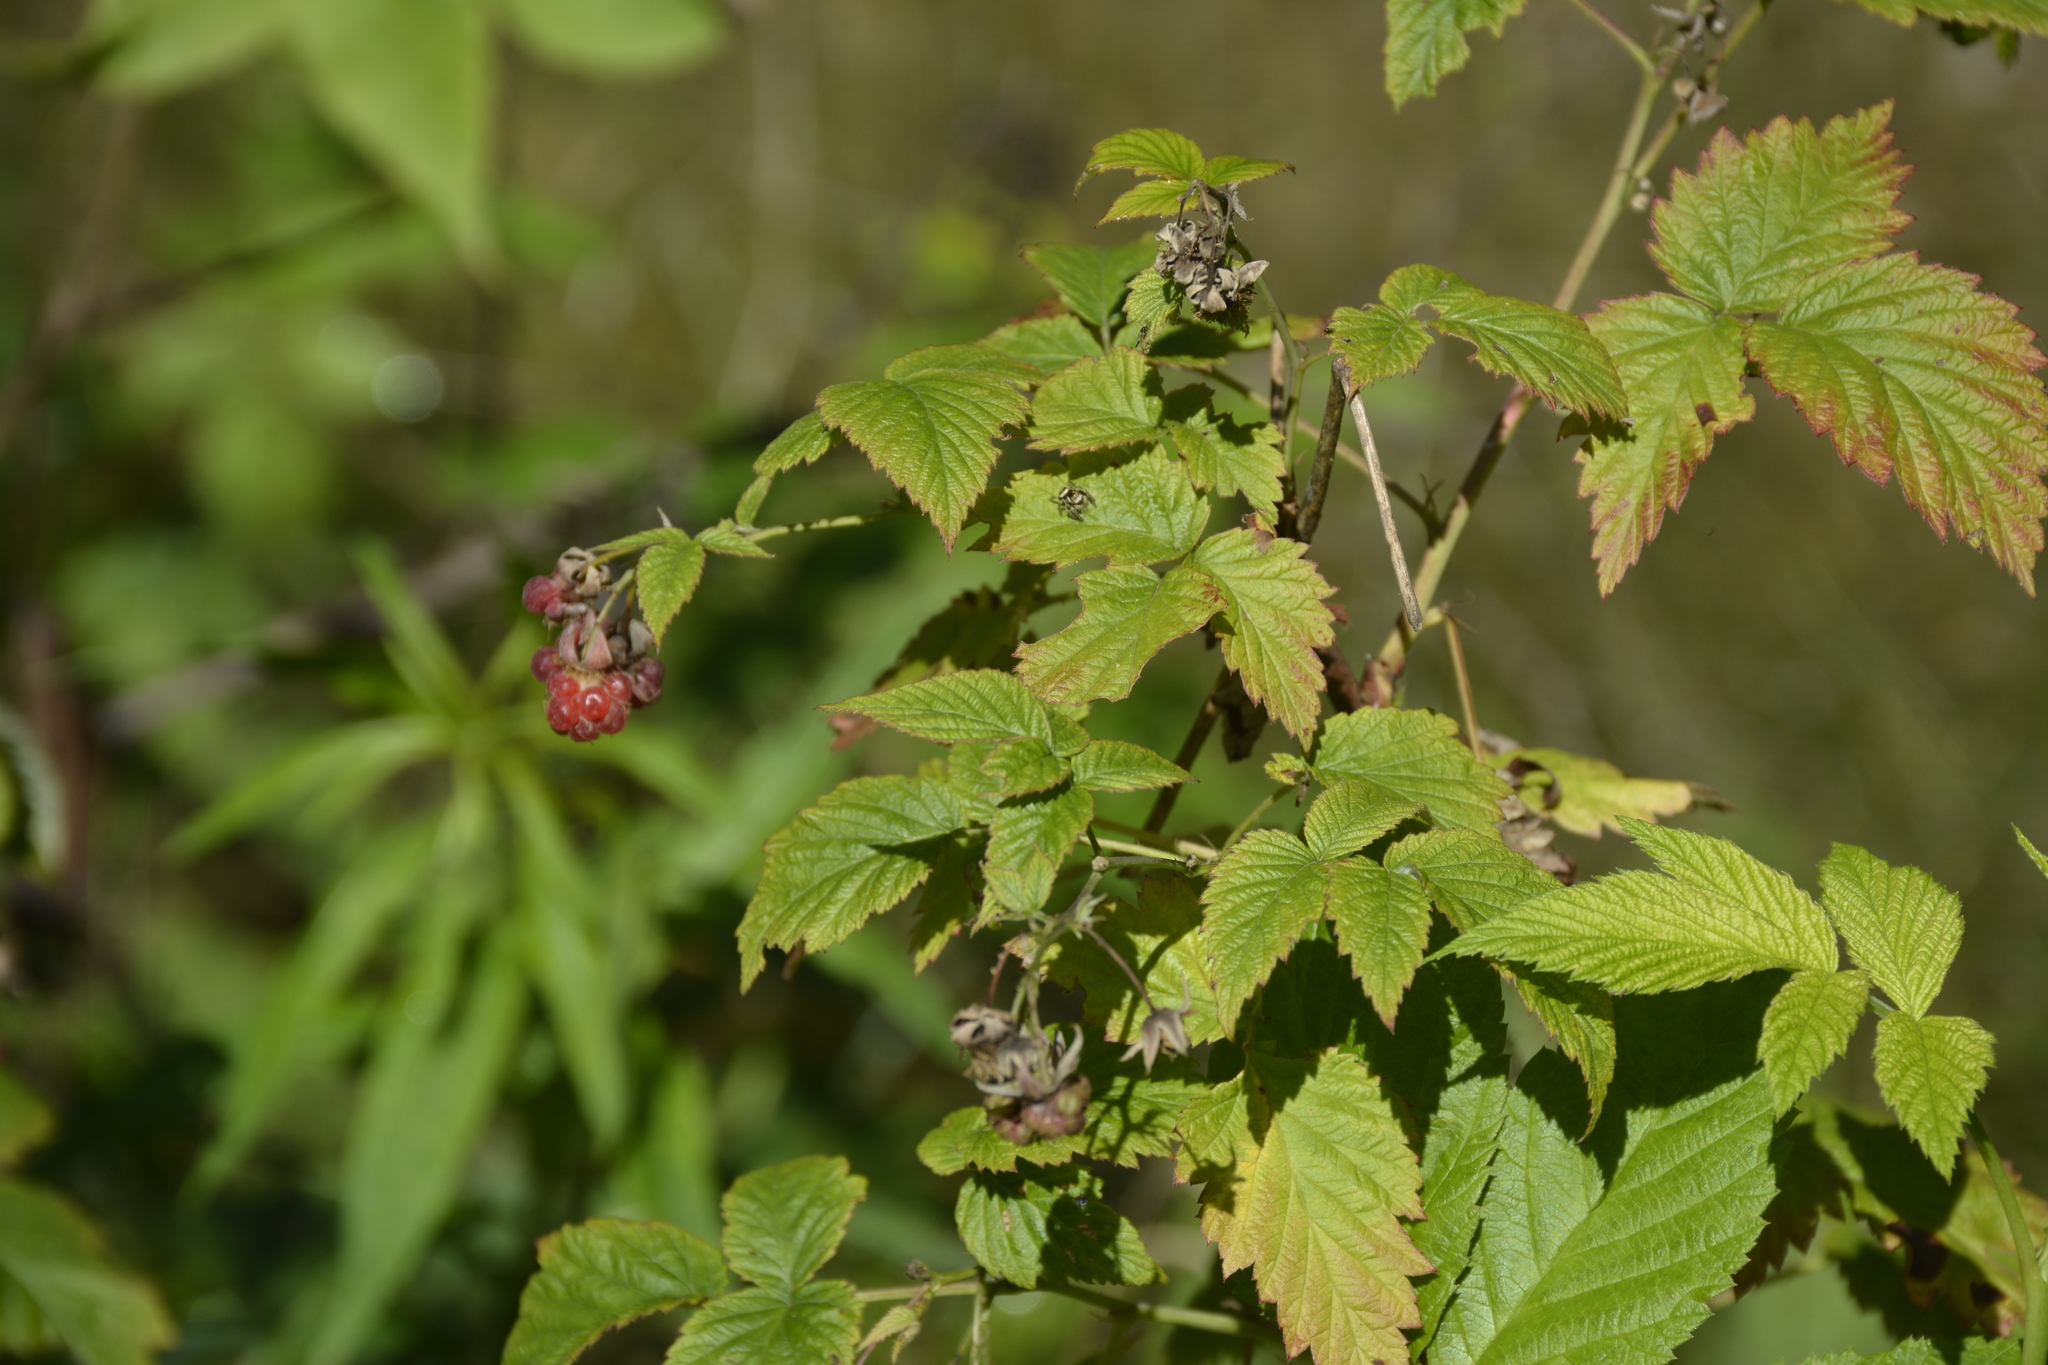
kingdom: Plantae
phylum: Tracheophyta
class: Magnoliopsida
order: Rosales
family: Rosaceae
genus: Rubus
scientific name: Rubus idaeus
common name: Raspberry
